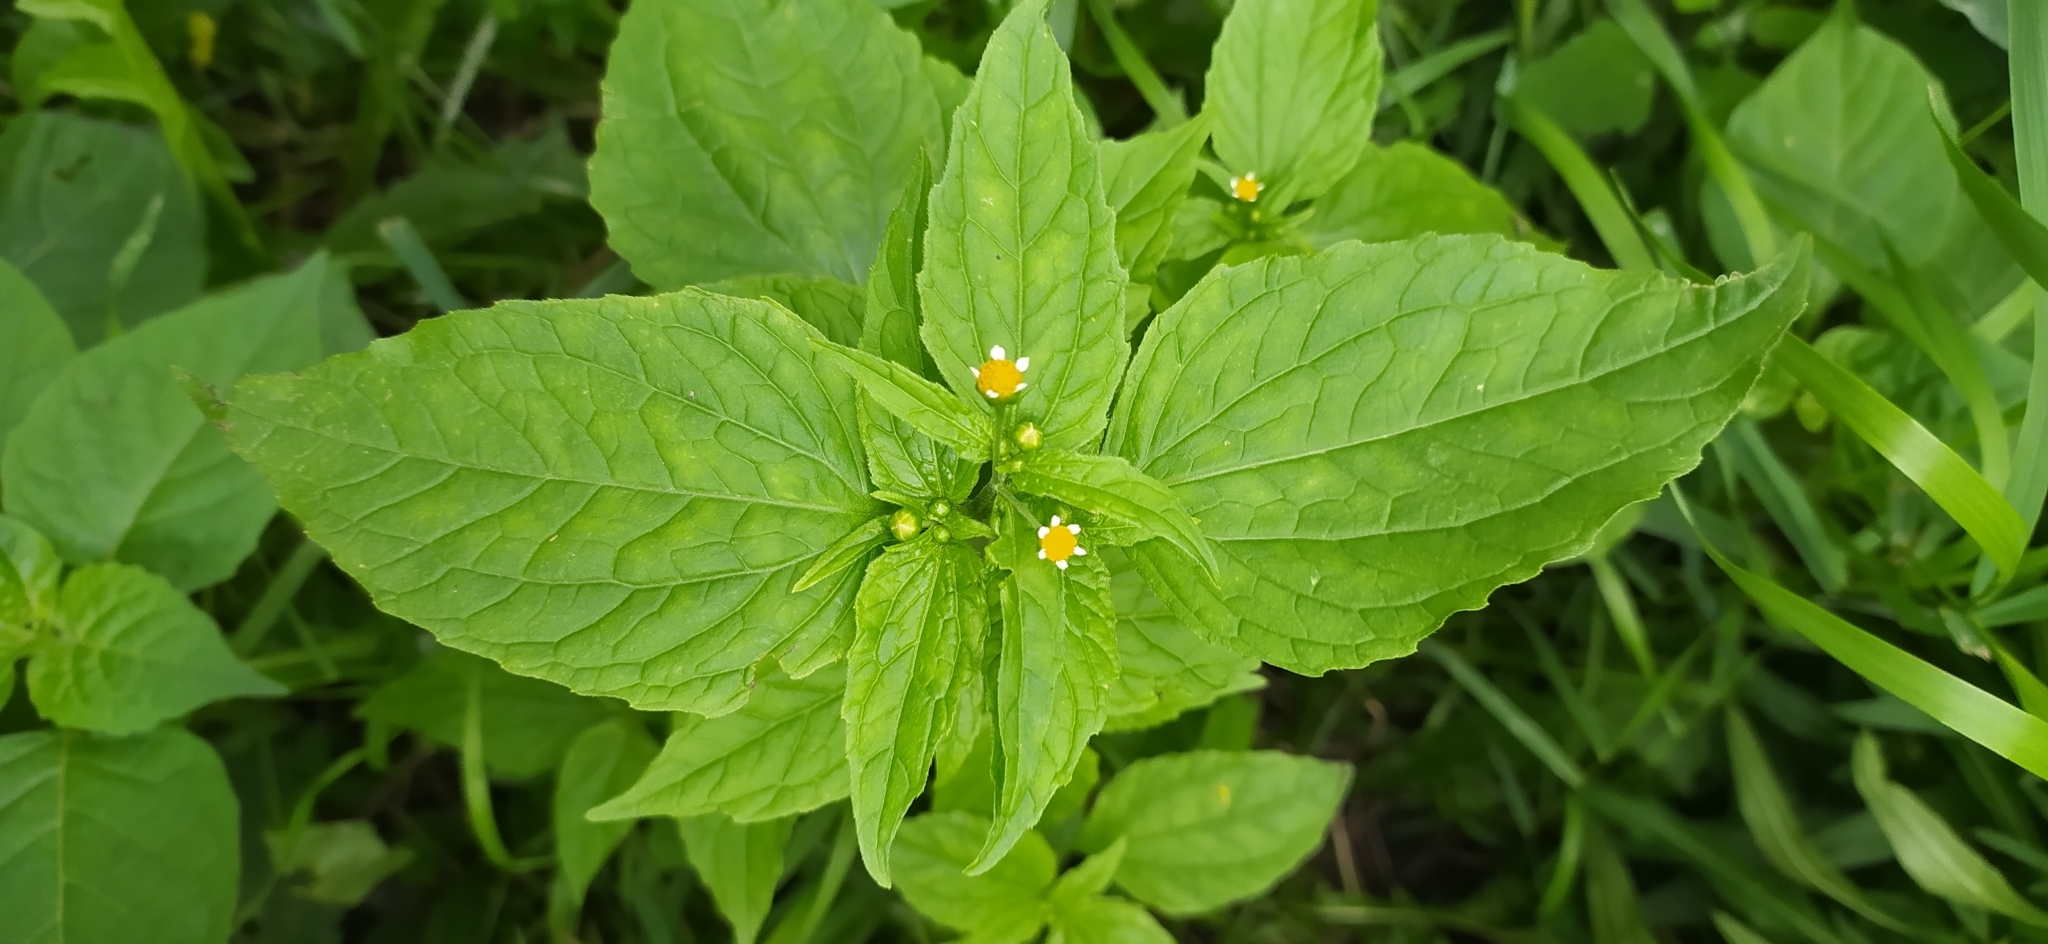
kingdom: Plantae
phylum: Tracheophyta
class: Magnoliopsida
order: Asterales
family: Asteraceae
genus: Galinsoga
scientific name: Galinsoga parviflora
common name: Gallant soldier
